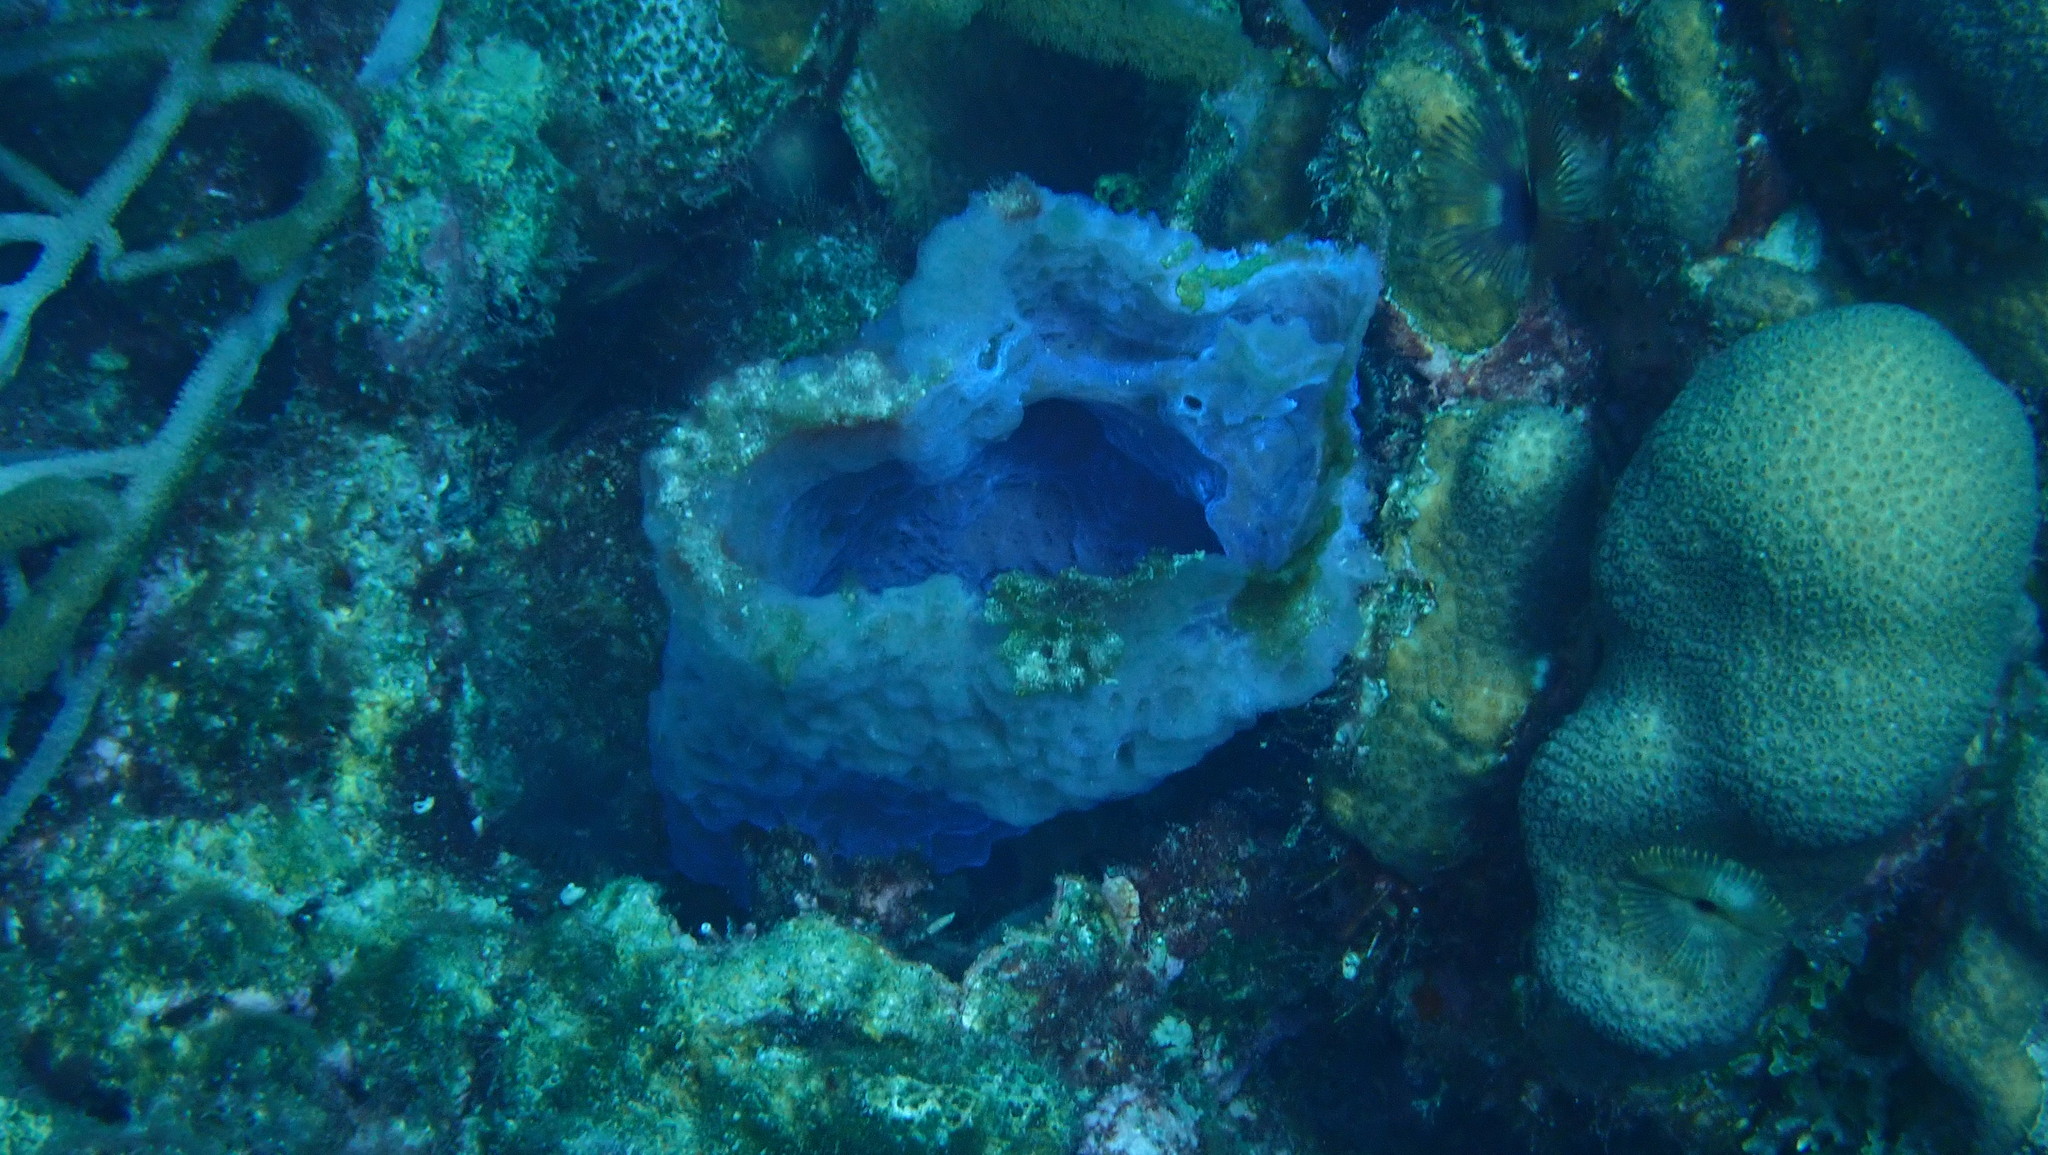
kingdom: Animalia
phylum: Porifera
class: Demospongiae
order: Haplosclerida
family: Callyspongiidae
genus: Callyspongia
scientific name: Callyspongia plicifera
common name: Azure vase sponge
